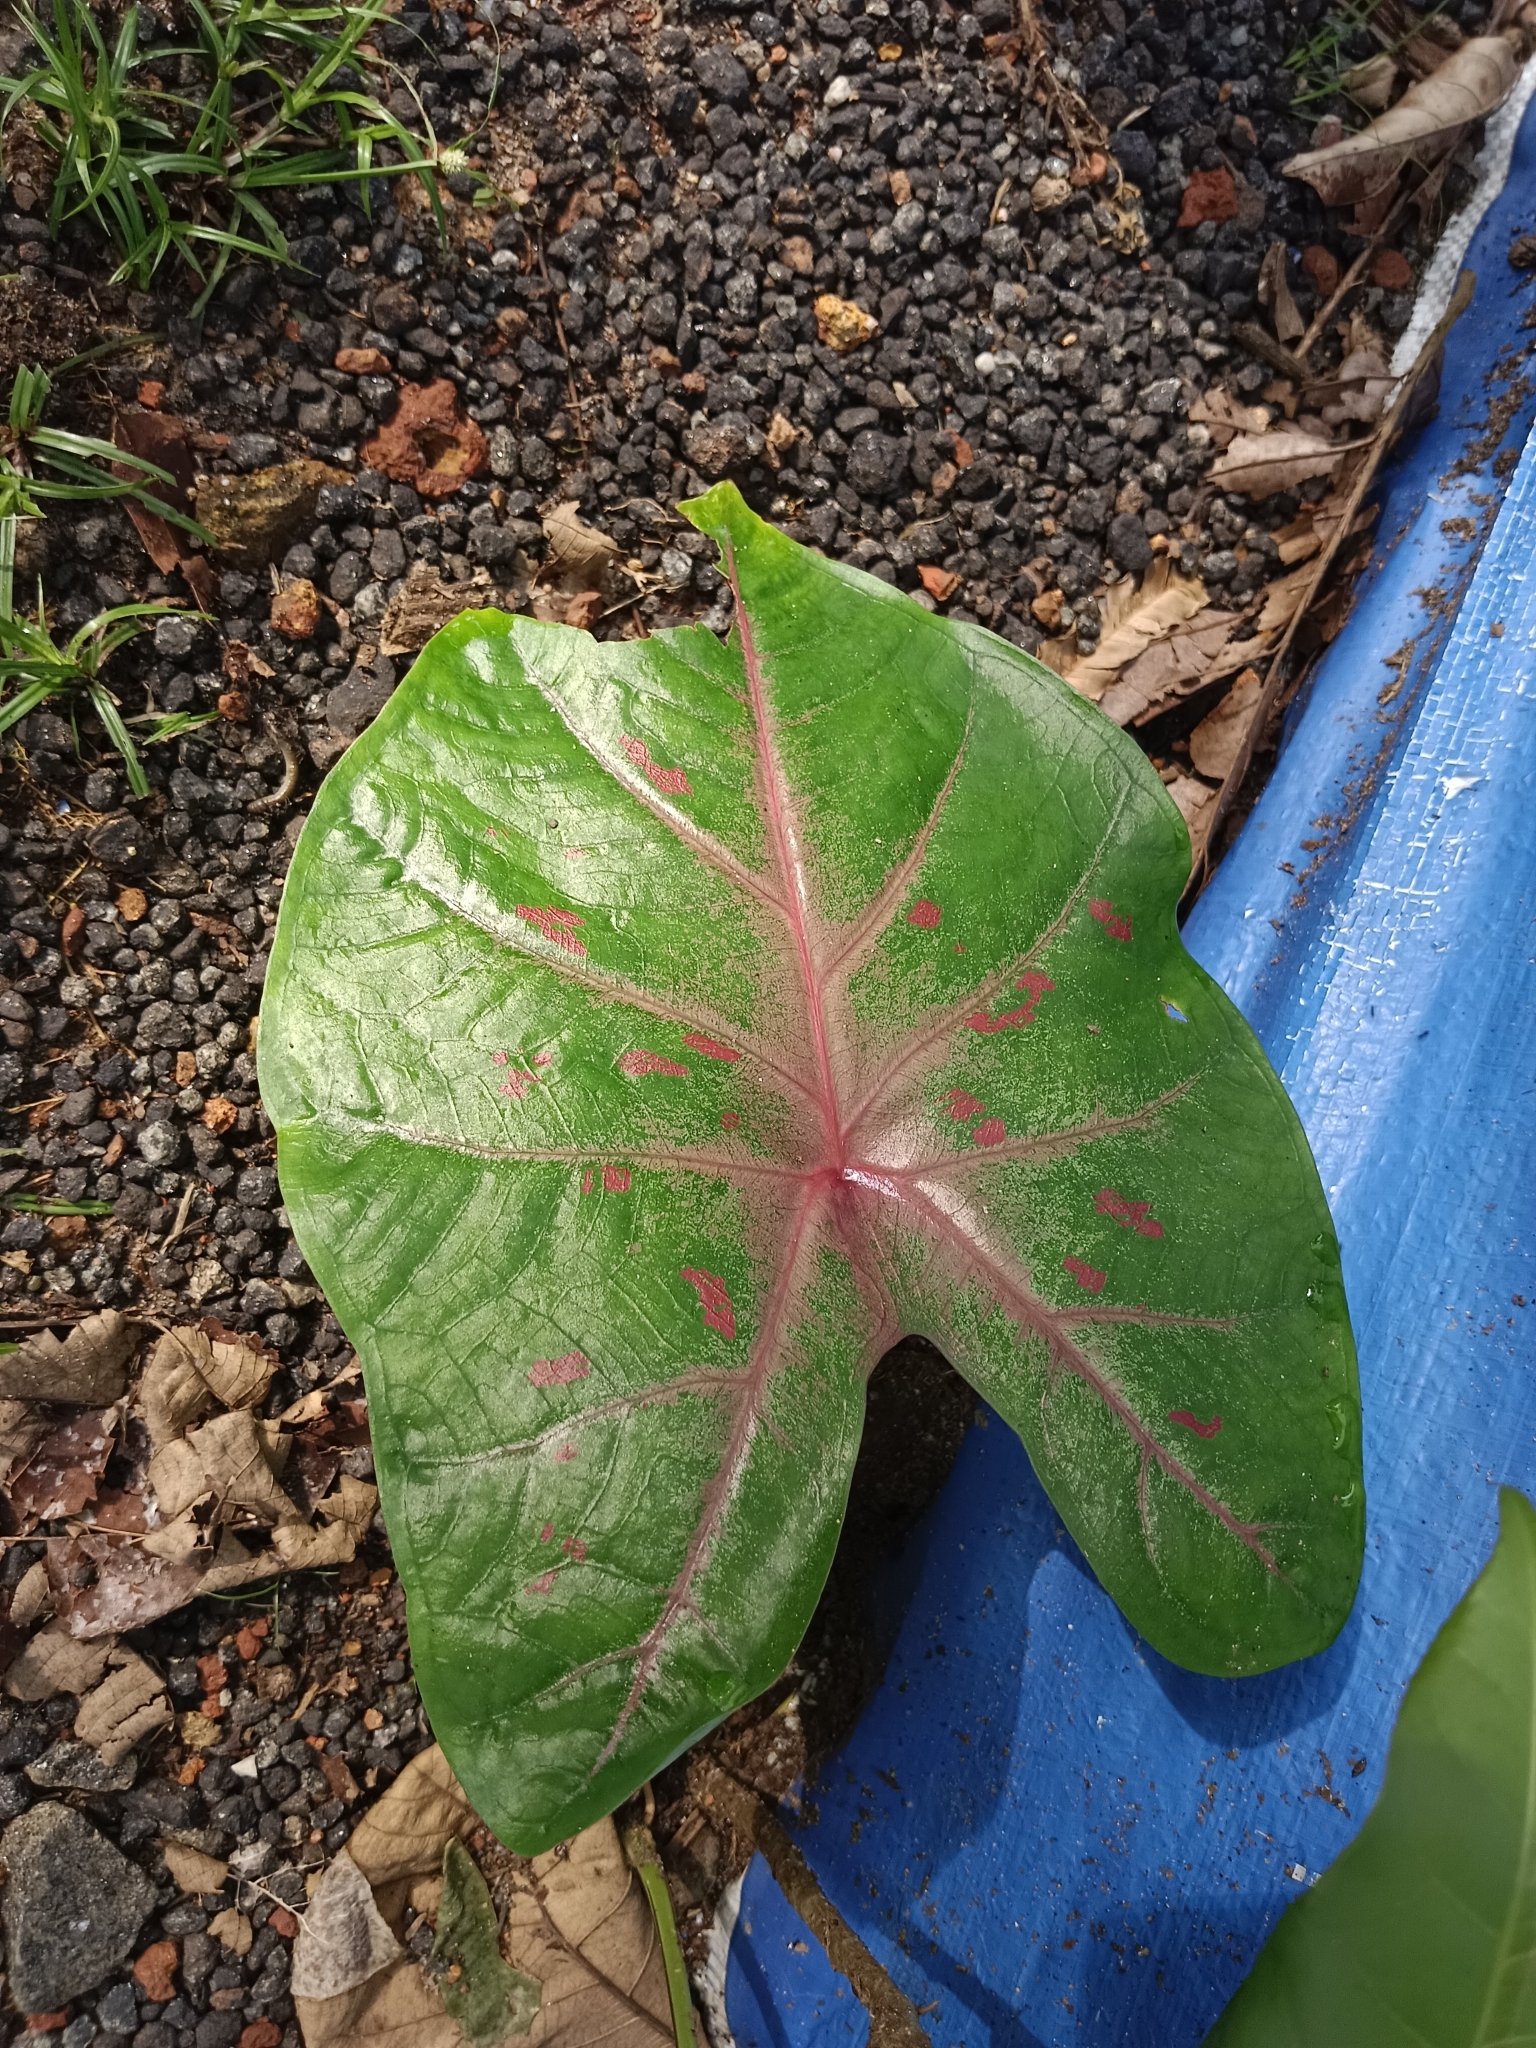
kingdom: Plantae
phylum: Tracheophyta
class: Liliopsida
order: Alismatales
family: Araceae
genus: Caladium
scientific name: Caladium bicolor
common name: Artist's pallet
